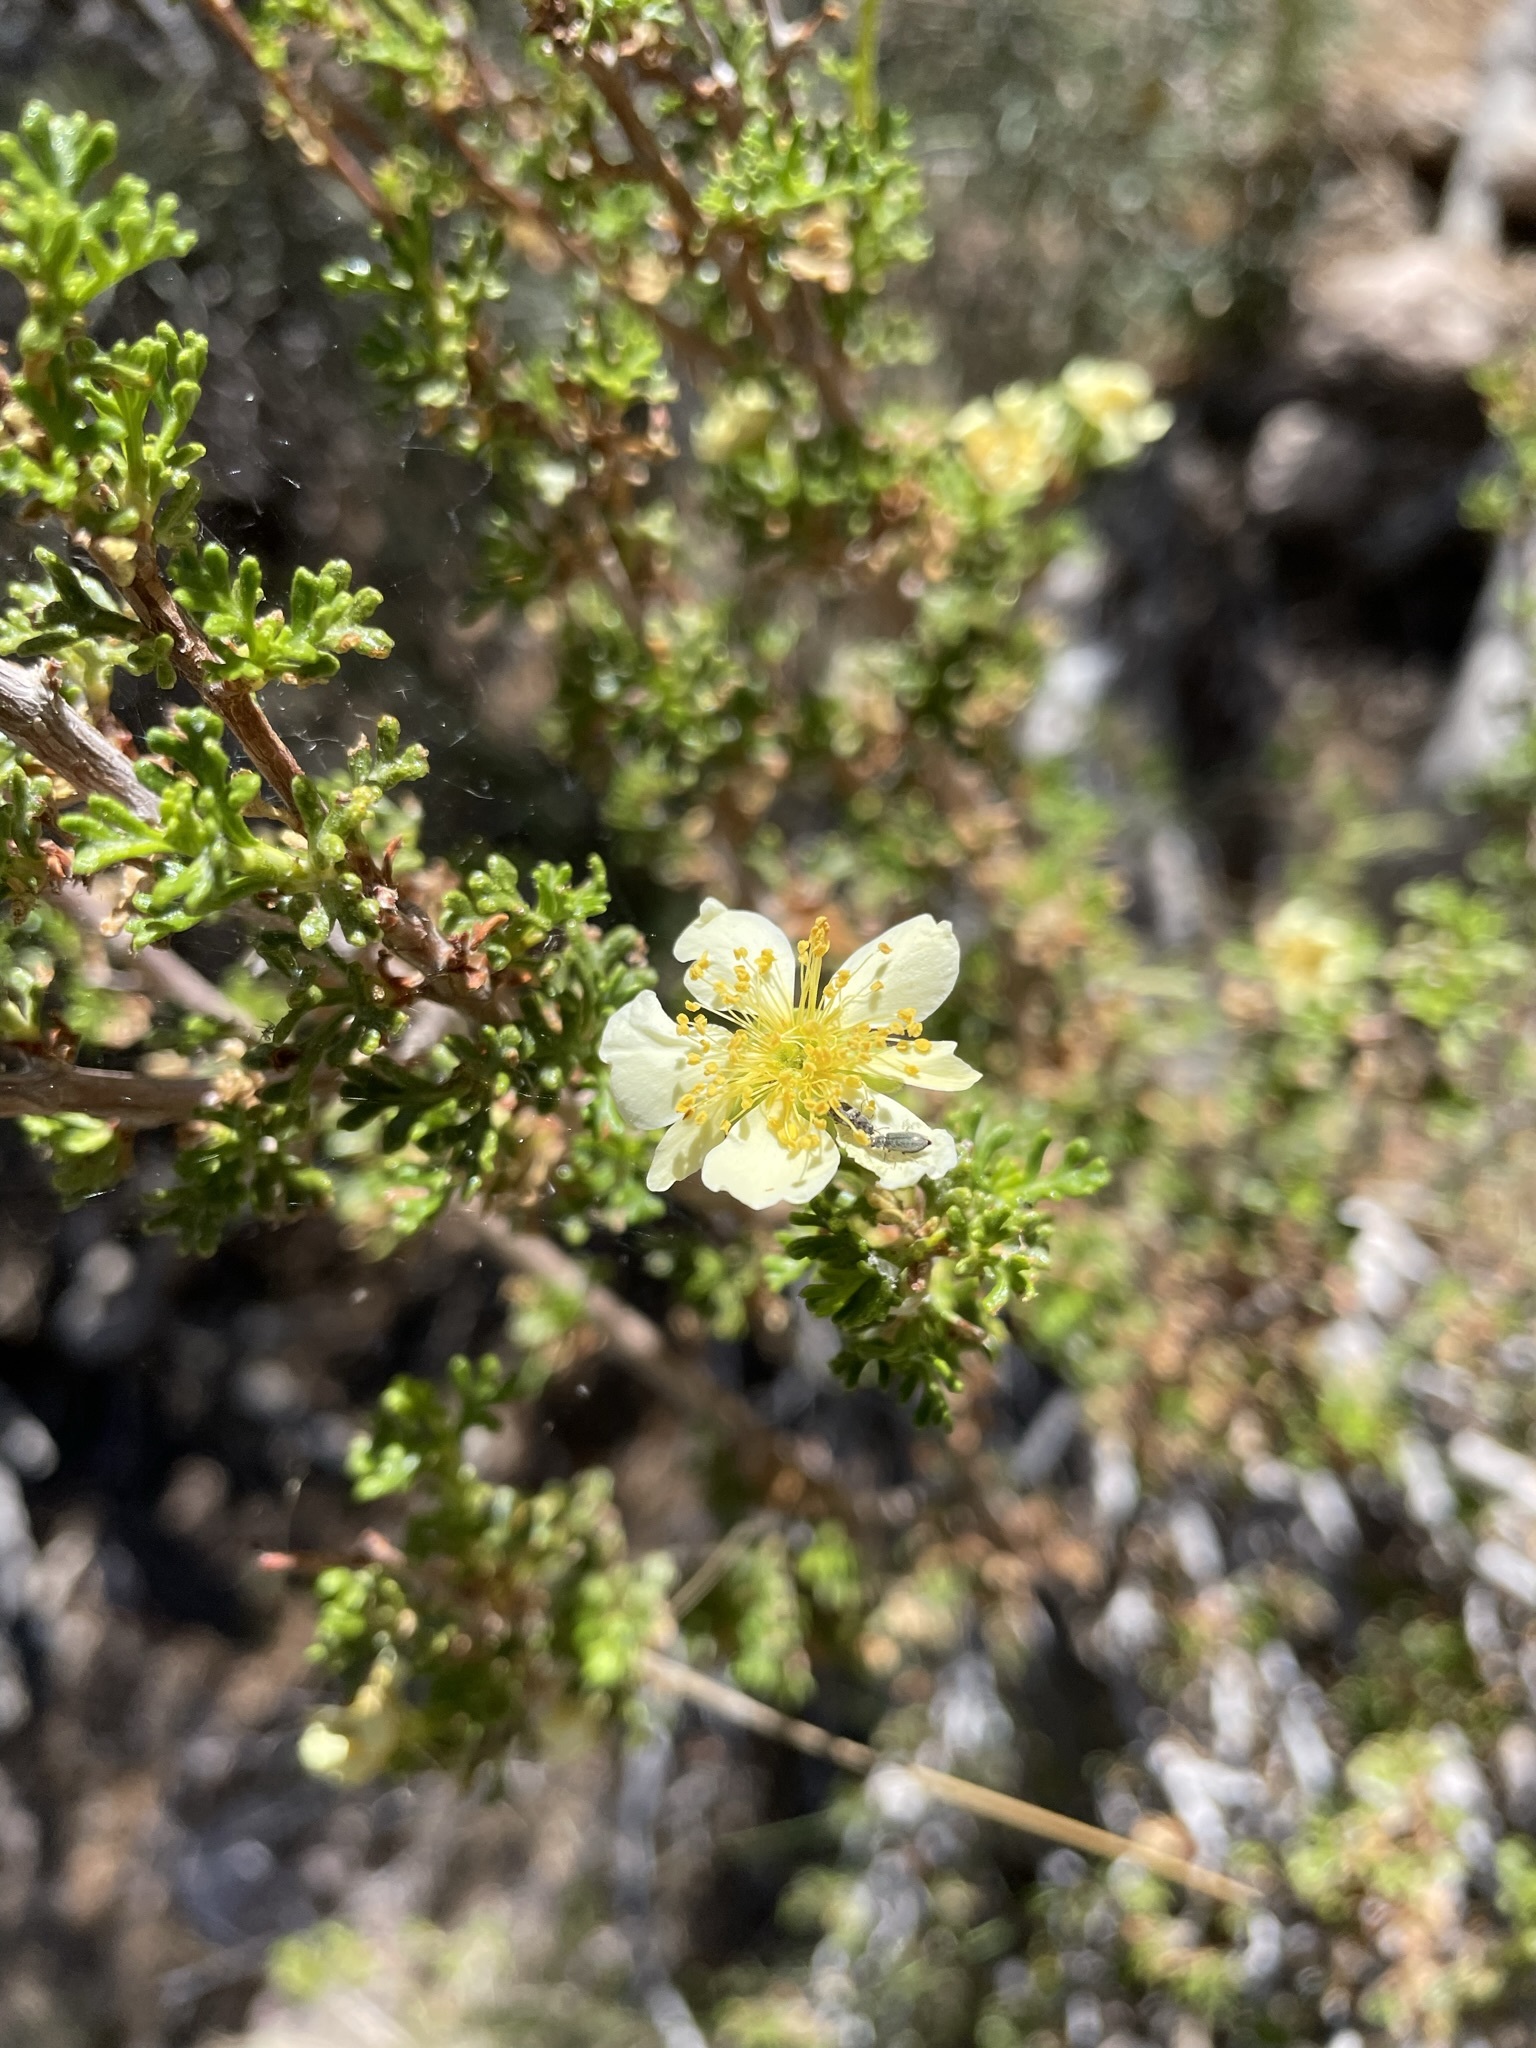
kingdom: Plantae
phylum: Tracheophyta
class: Magnoliopsida
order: Rosales
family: Rosaceae
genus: Purshia
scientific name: Purshia stansburiana
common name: Stansbury's cliffrose
